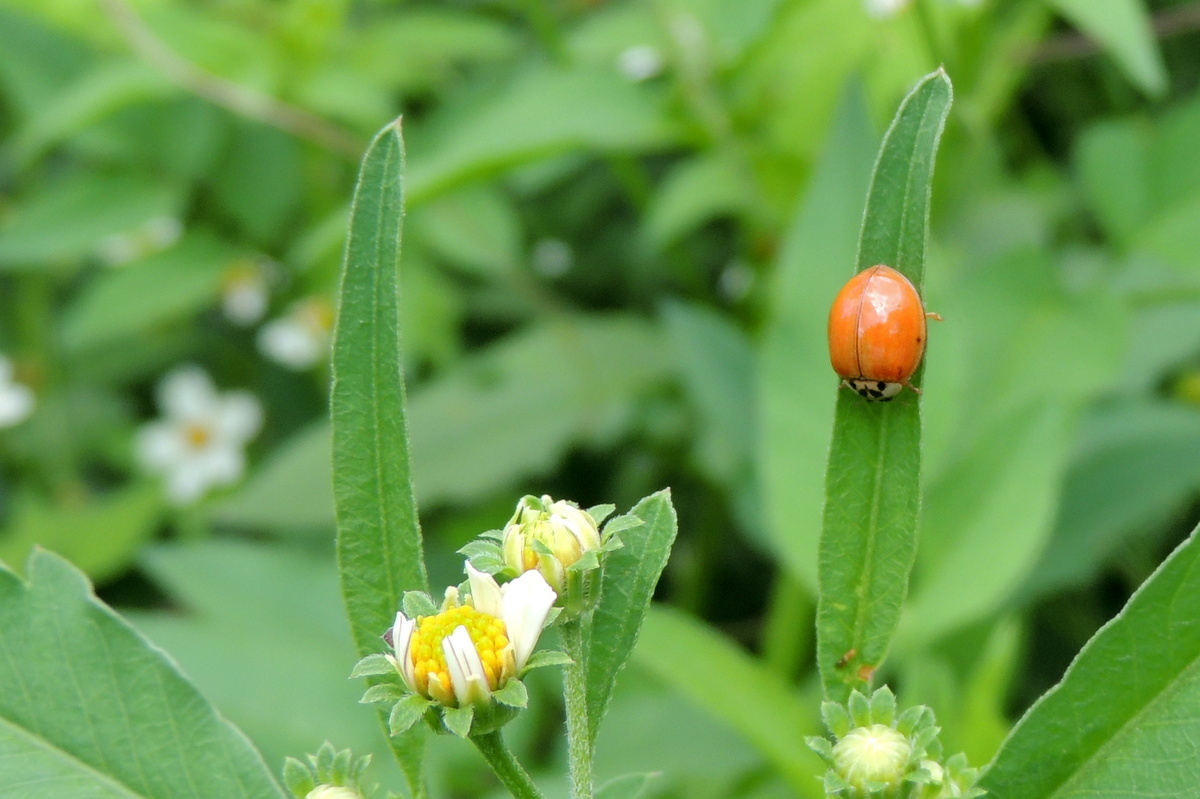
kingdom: Animalia
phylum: Arthropoda
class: Insecta
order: Coleoptera
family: Coccinellidae
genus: Harmonia
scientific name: Harmonia axyridis
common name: Harlequin ladybird
